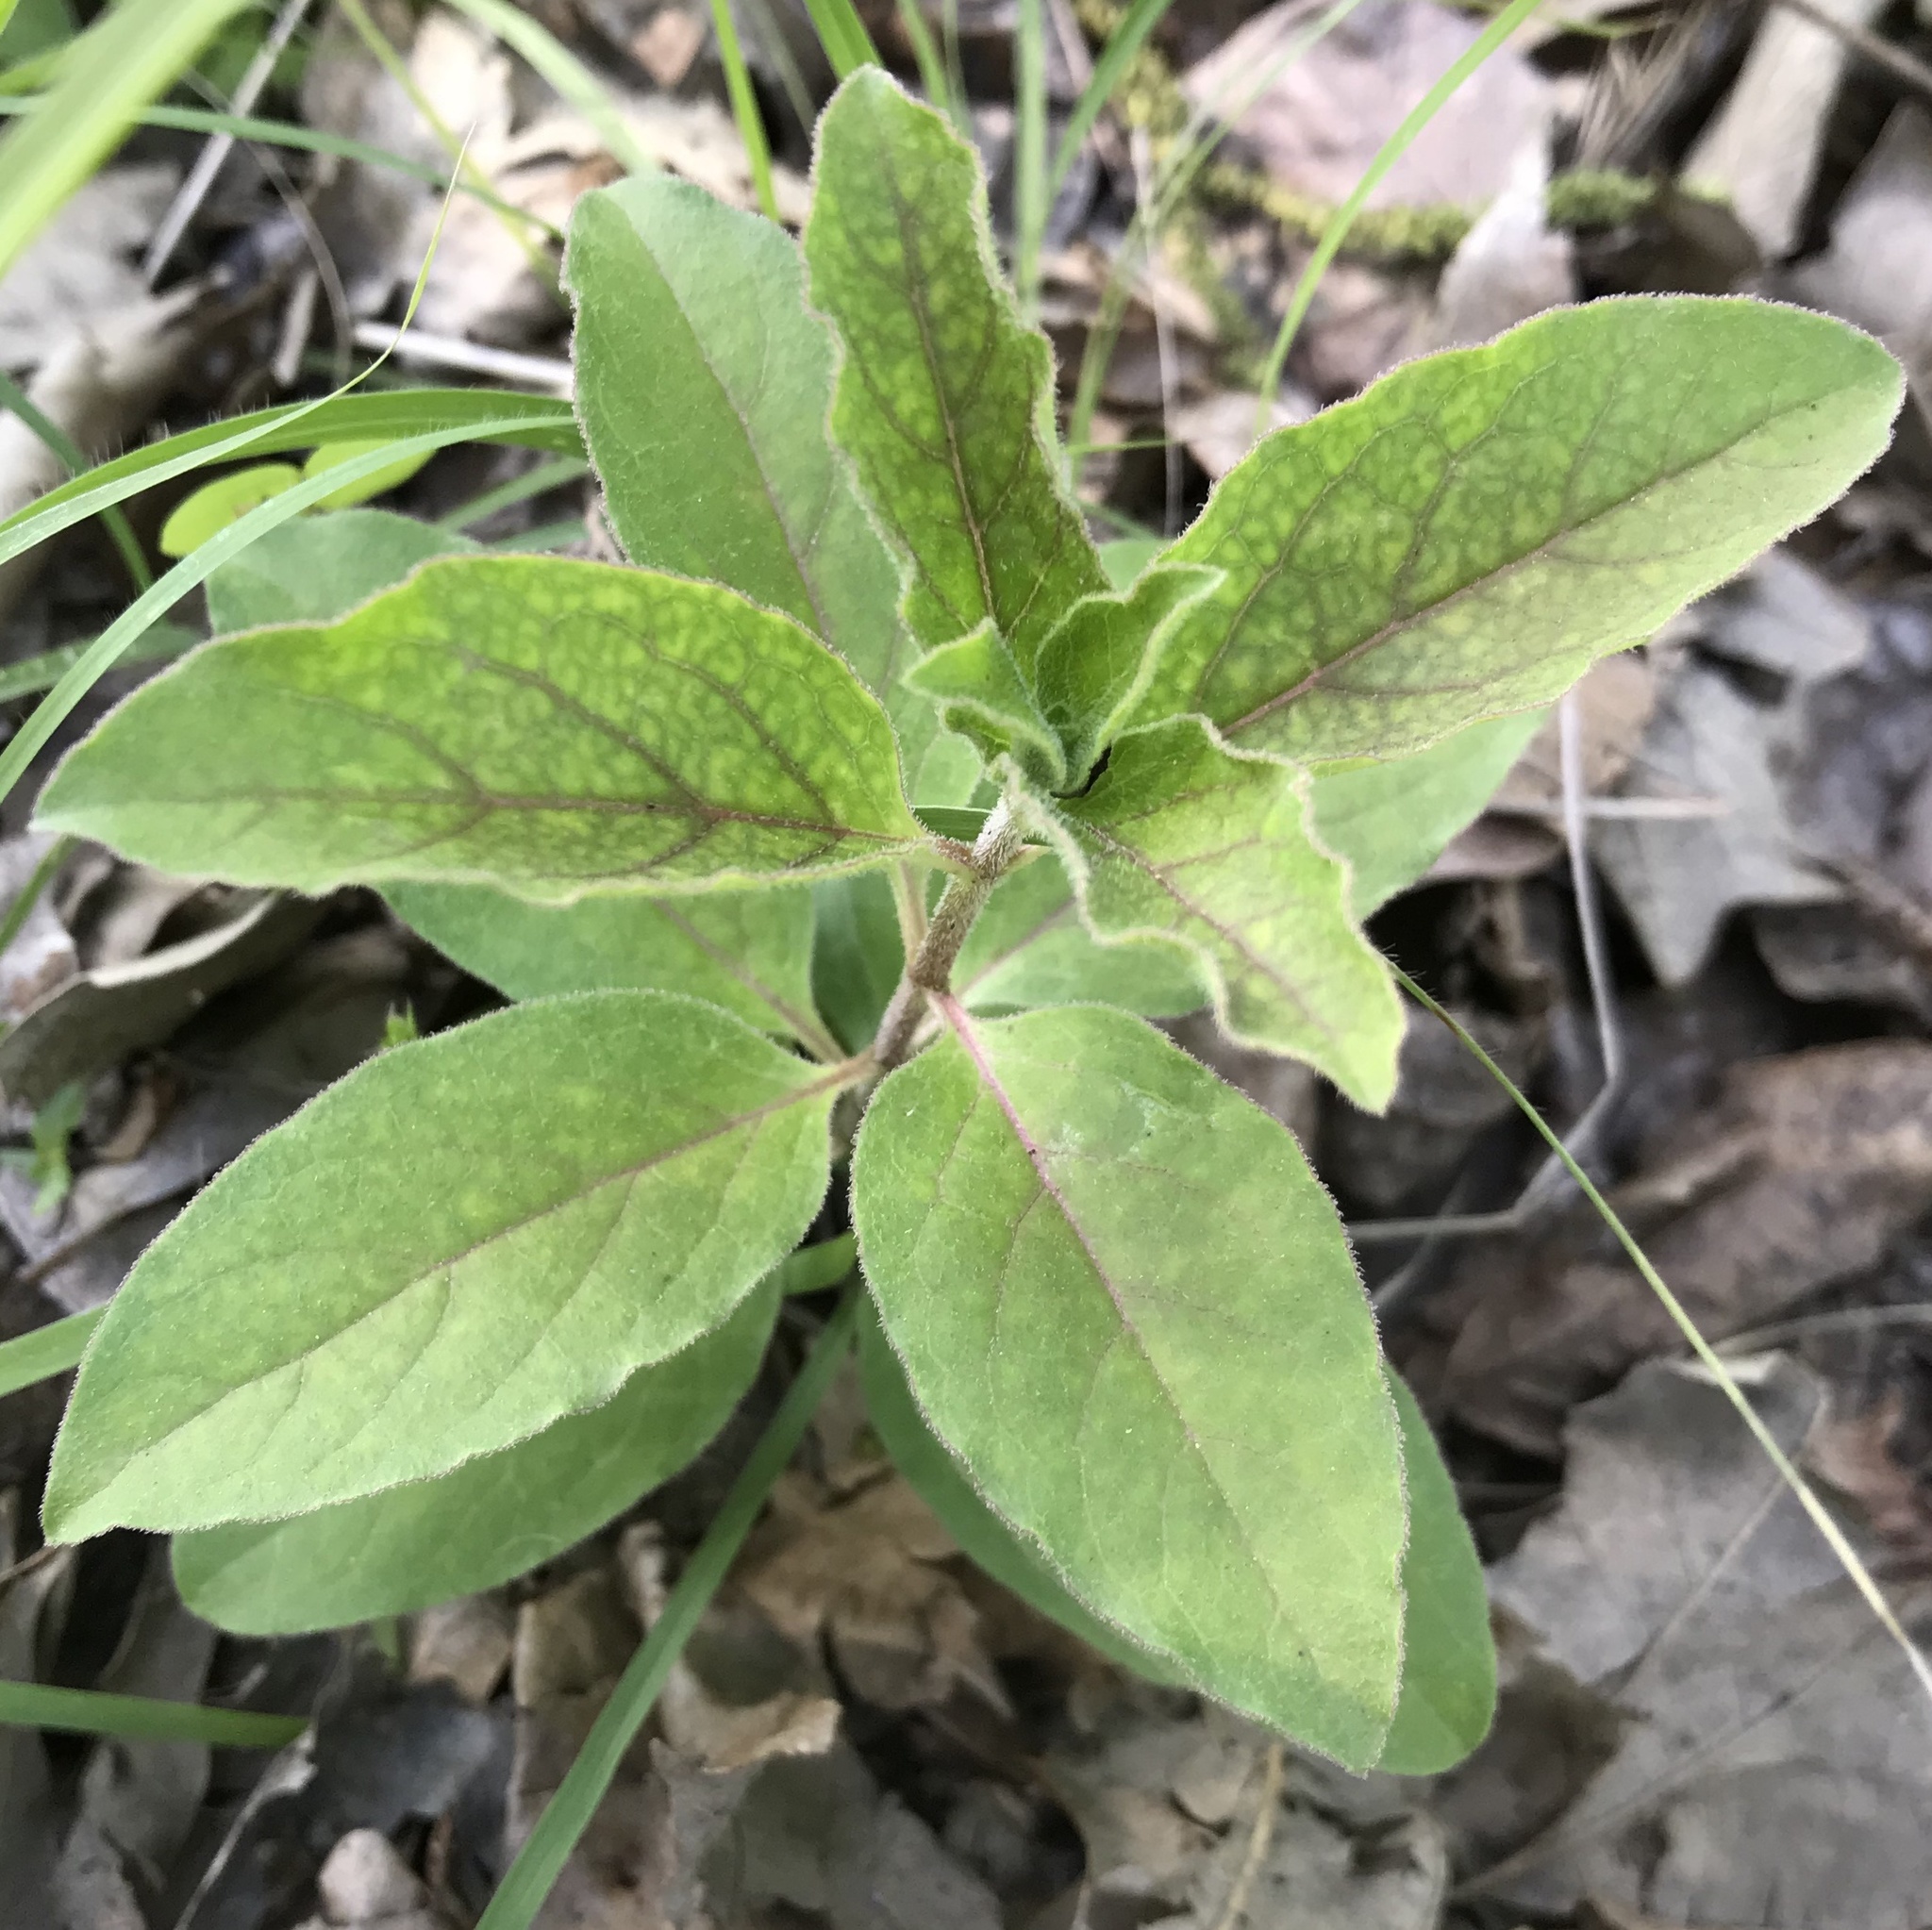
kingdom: Plantae
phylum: Tracheophyta
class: Magnoliopsida
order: Gentianales
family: Apocynaceae
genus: Asclepias
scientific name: Asclepias oenotheroides
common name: Zizotes milkweed
